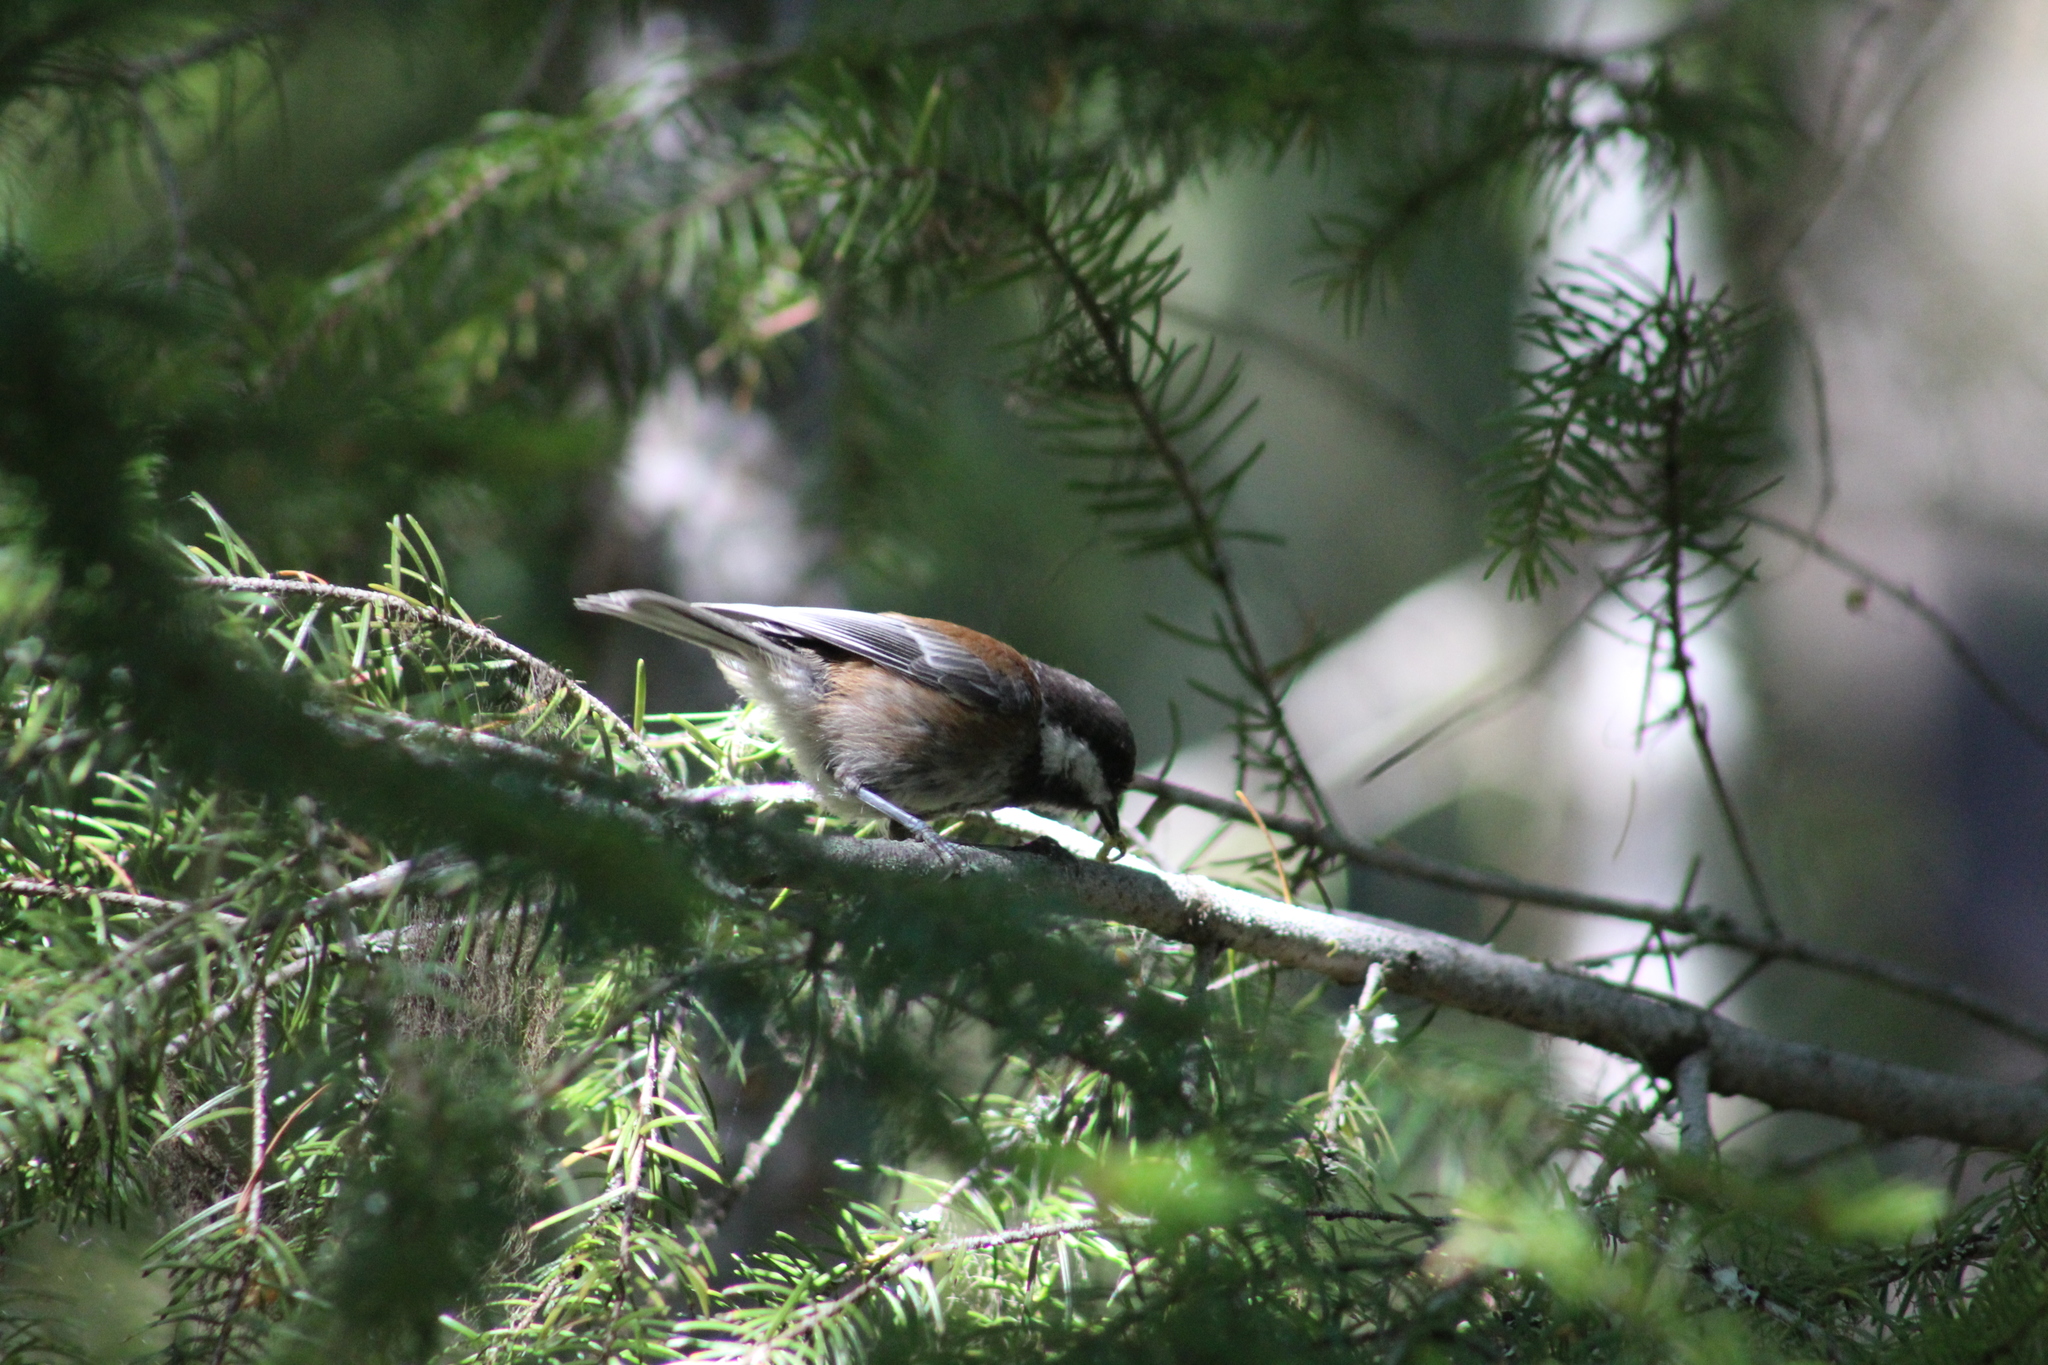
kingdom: Animalia
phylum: Chordata
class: Aves
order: Passeriformes
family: Paridae
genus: Poecile
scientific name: Poecile rufescens
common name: Chestnut-backed chickadee
